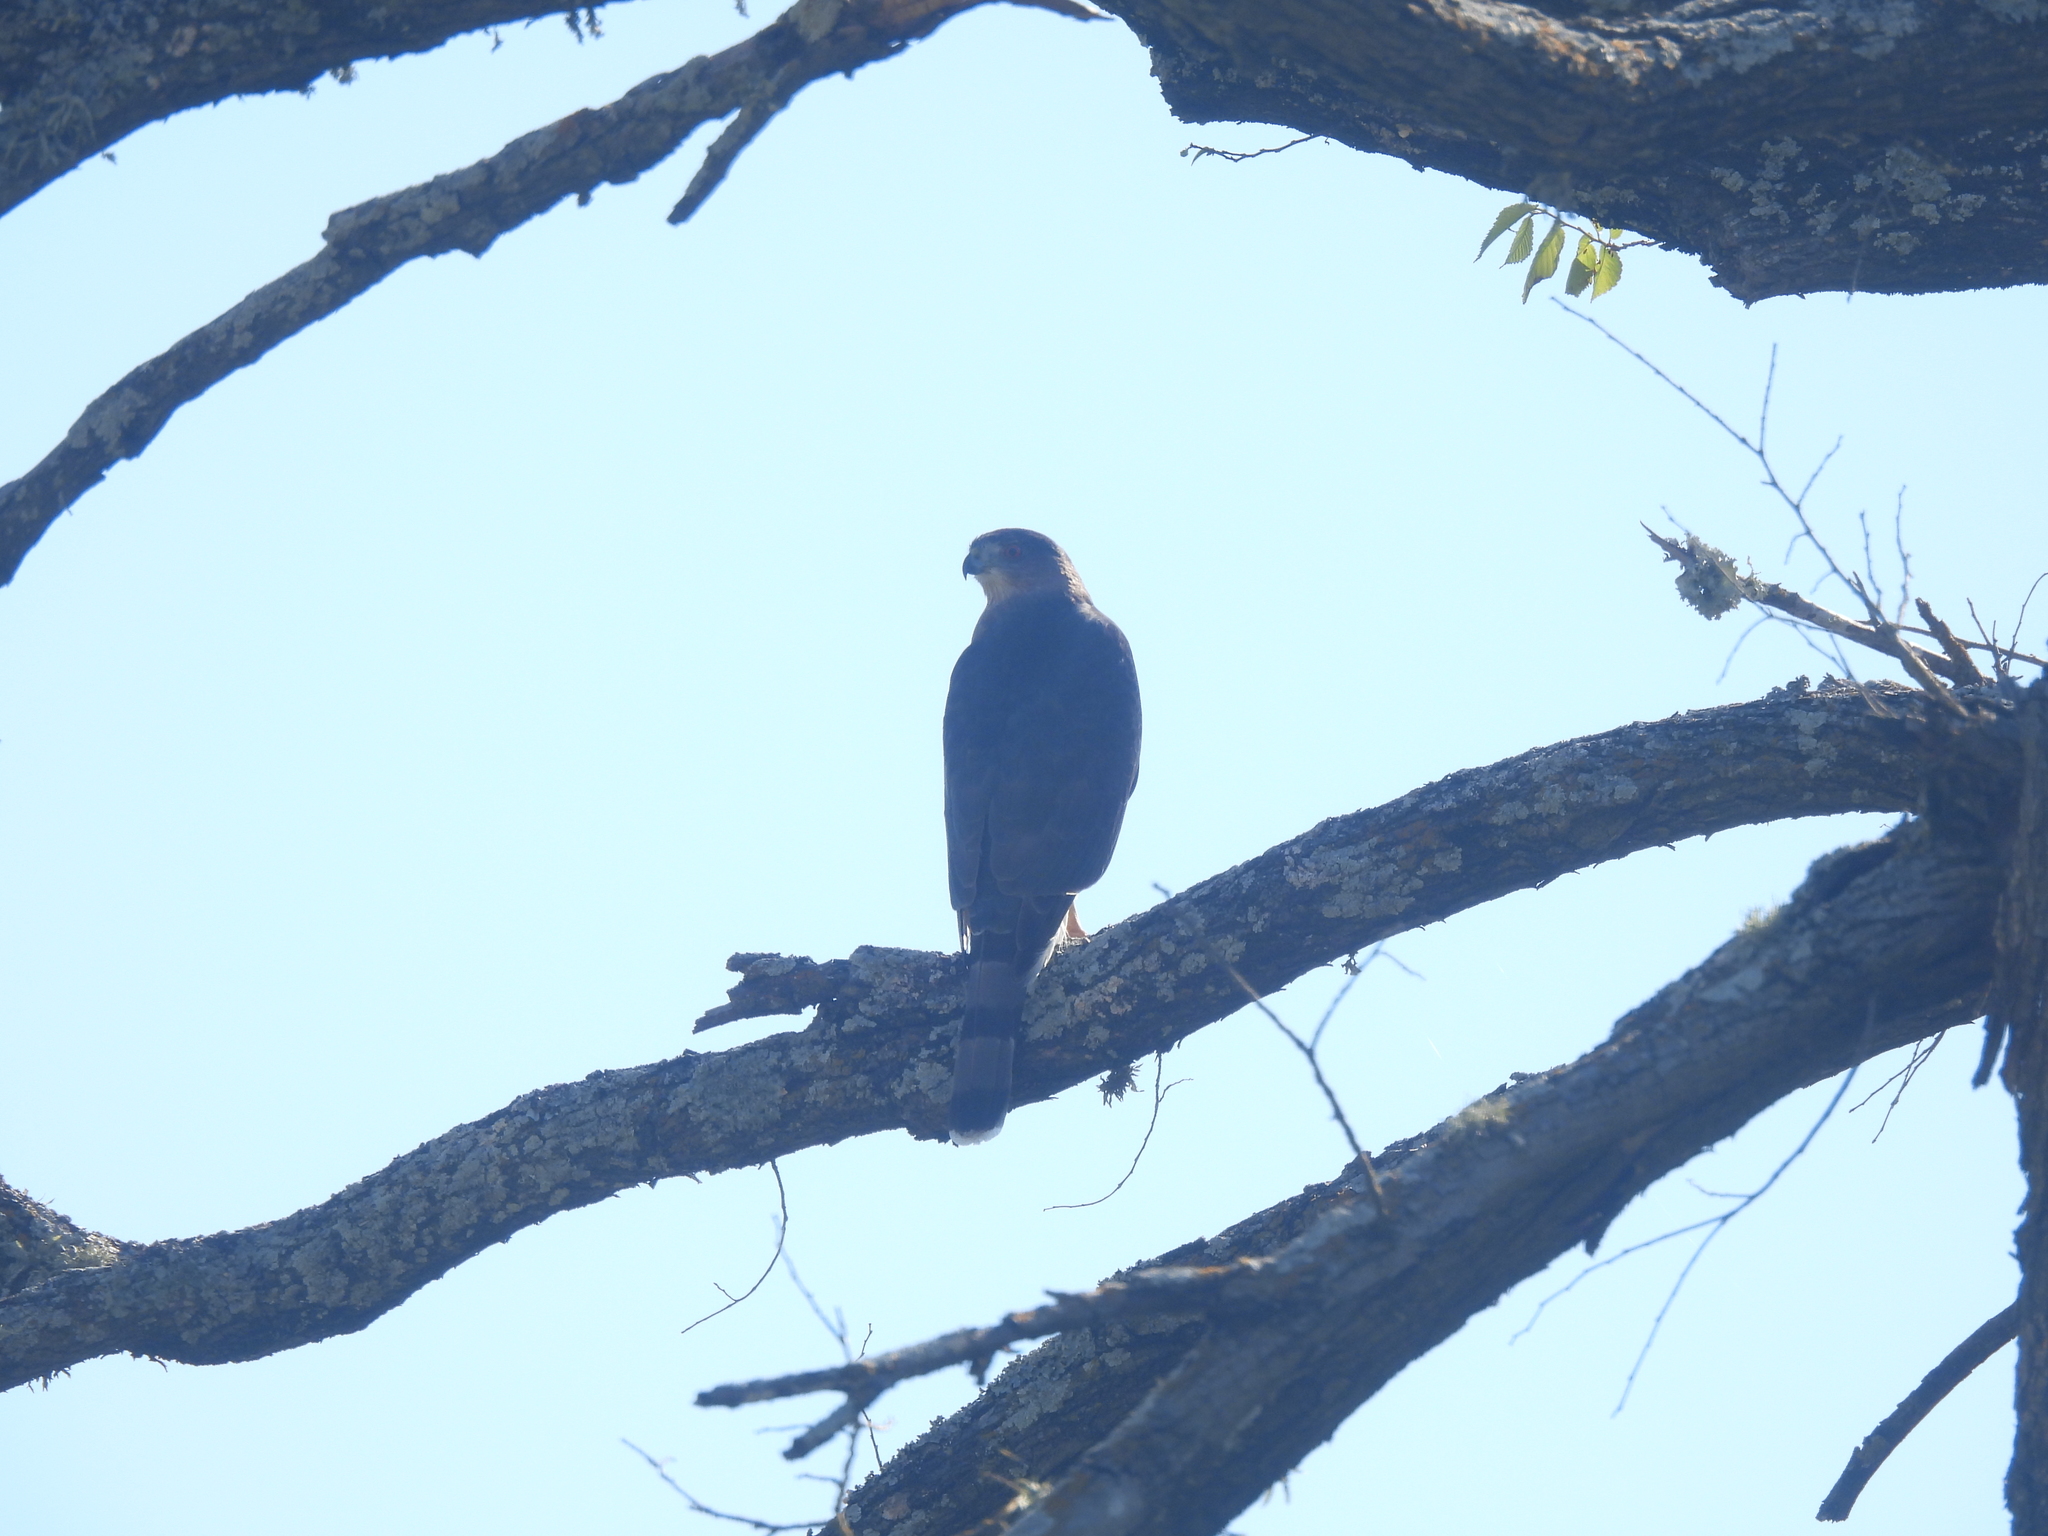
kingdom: Animalia
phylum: Chordata
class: Aves
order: Accipitriformes
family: Accipitridae
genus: Accipiter
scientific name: Accipiter cooperii
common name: Cooper's hawk
